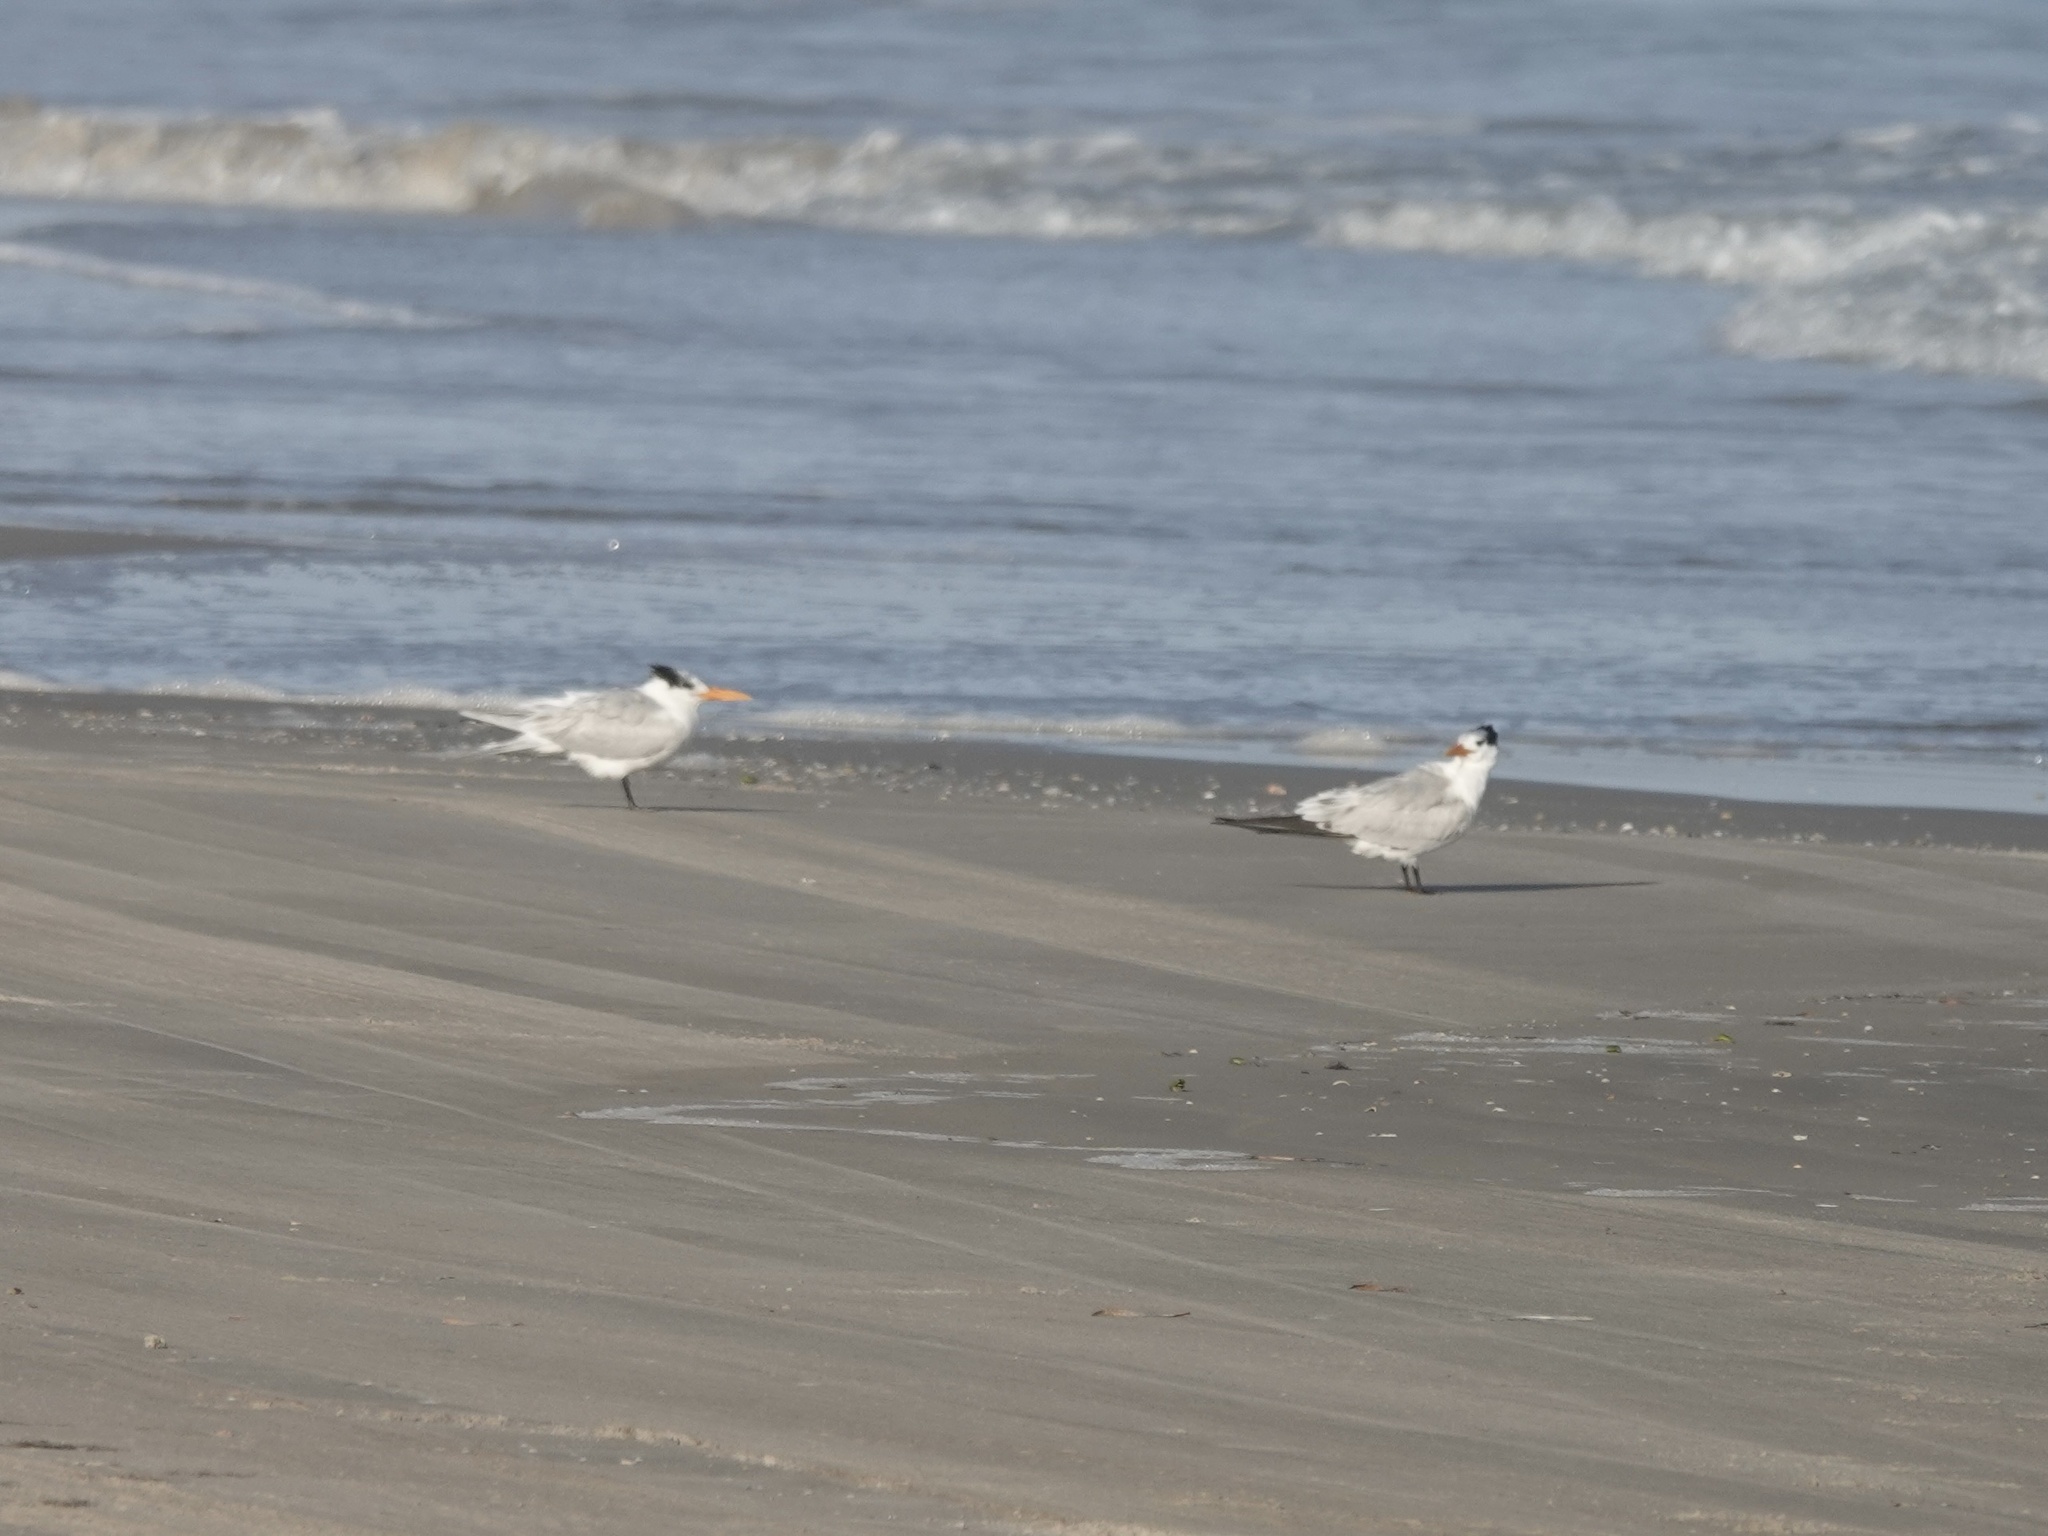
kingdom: Animalia
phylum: Chordata
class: Aves
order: Charadriiformes
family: Laridae
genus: Thalasseus
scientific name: Thalasseus maximus
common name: Royal tern
